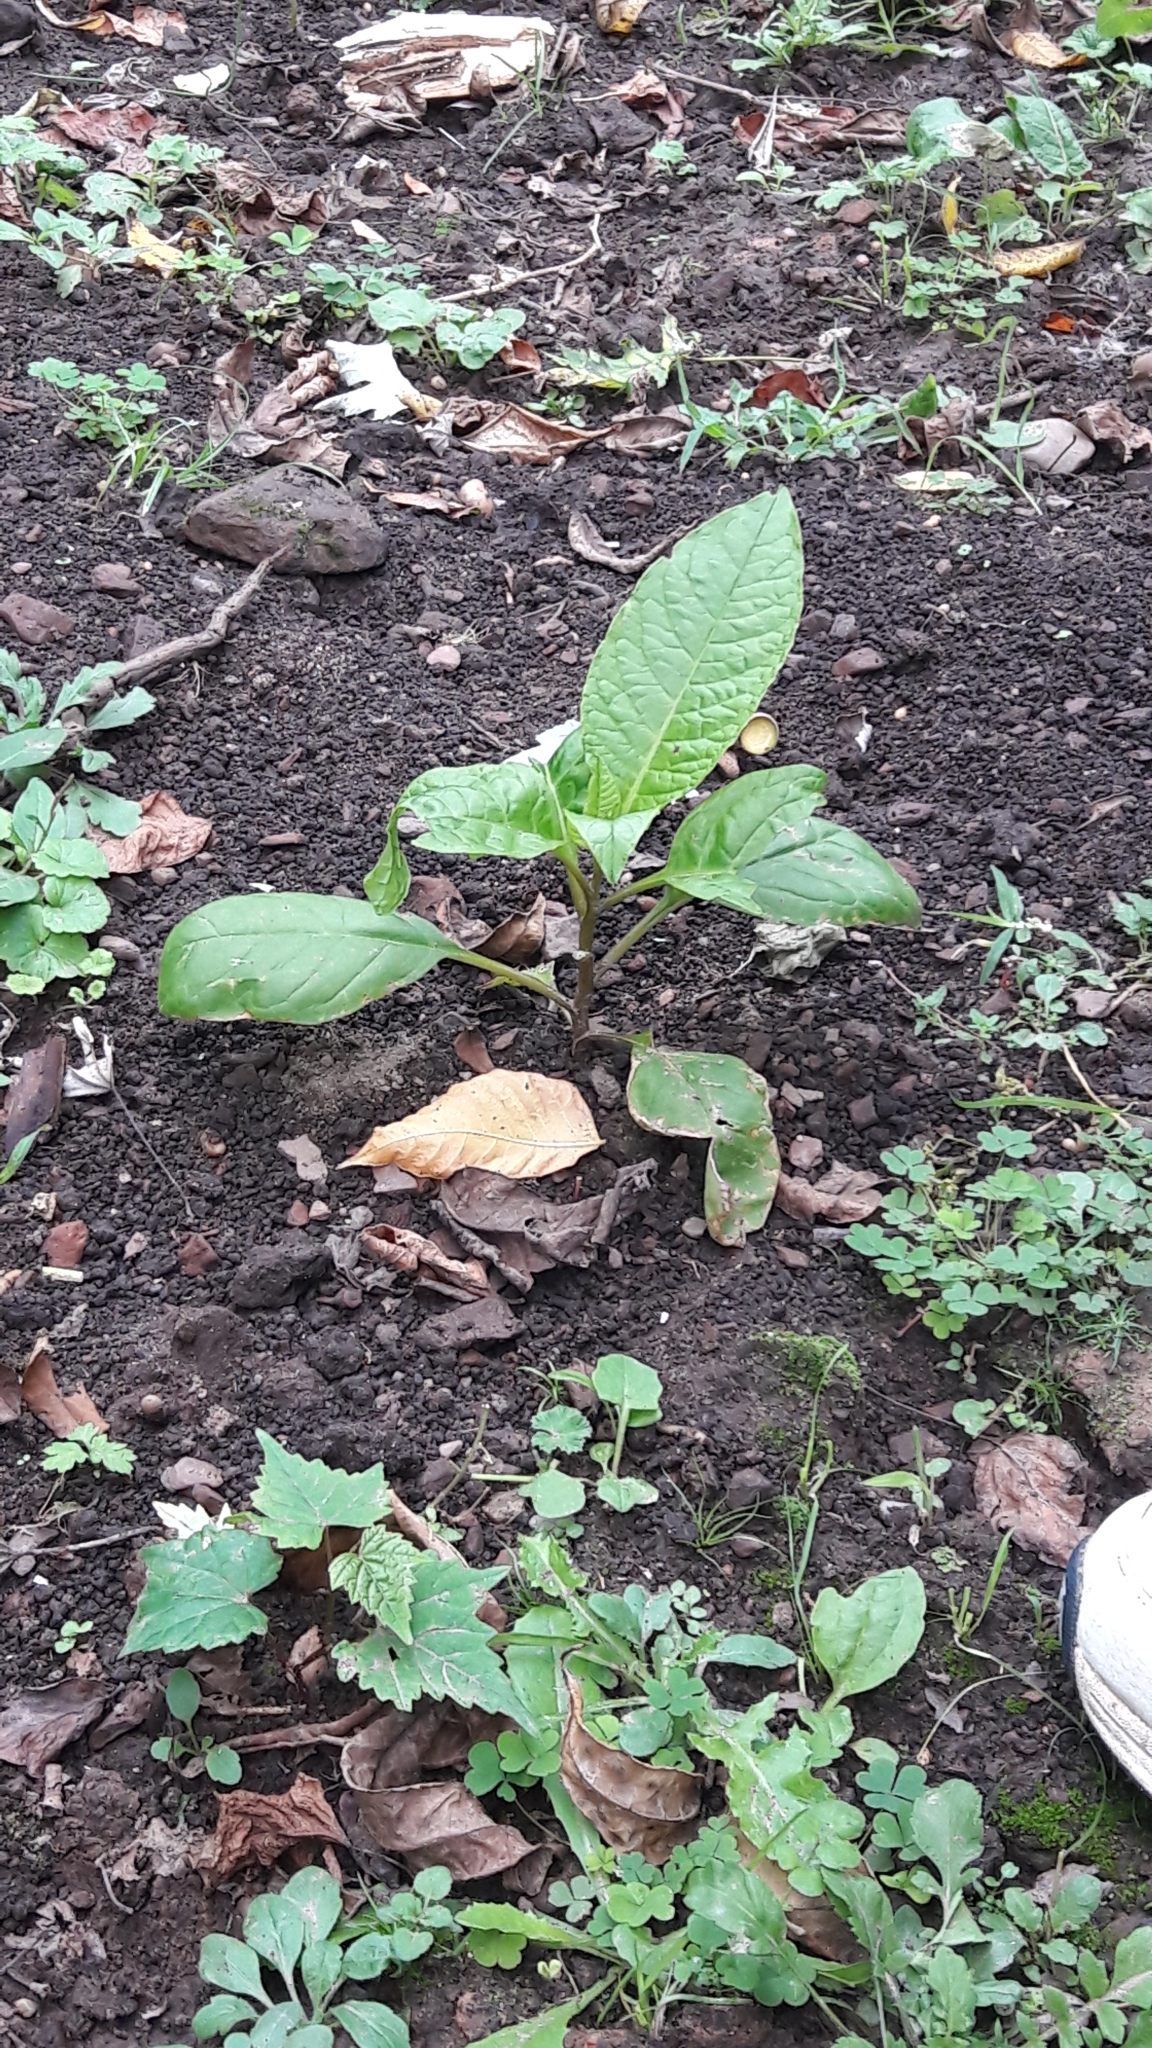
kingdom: Plantae
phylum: Tracheophyta
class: Magnoliopsida
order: Caryophyllales
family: Phytolaccaceae
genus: Phytolacca
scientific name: Phytolacca americana
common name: American pokeweed
